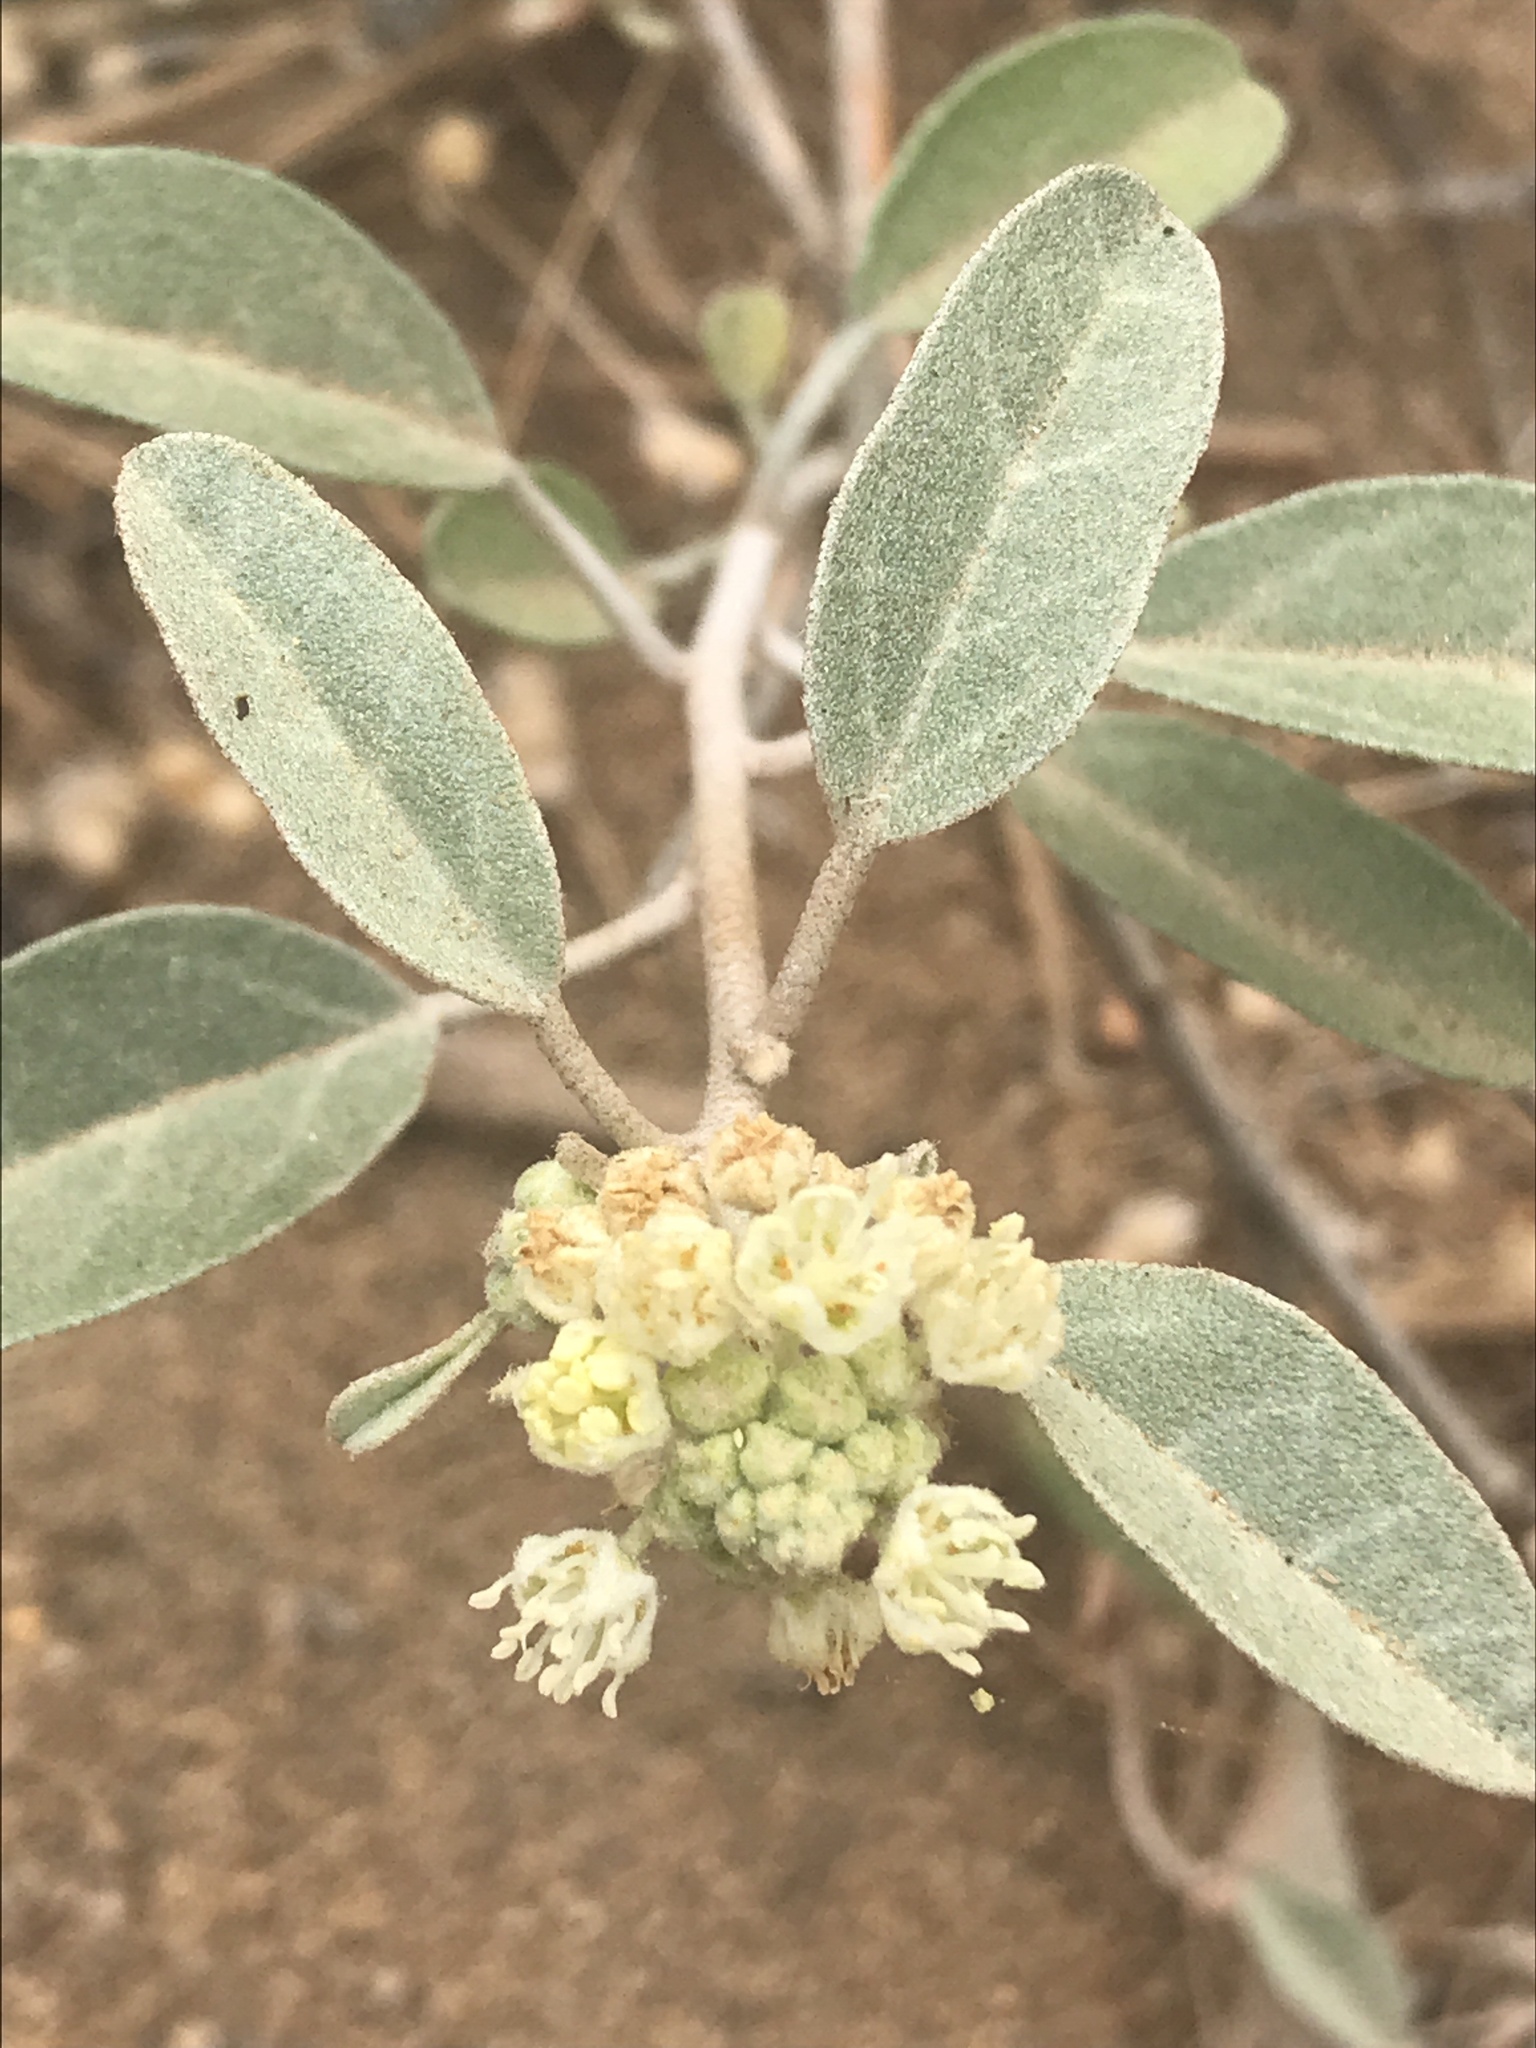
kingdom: Plantae
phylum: Tracheophyta
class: Magnoliopsida
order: Malpighiales
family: Euphorbiaceae
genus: Croton
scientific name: Croton californicus
